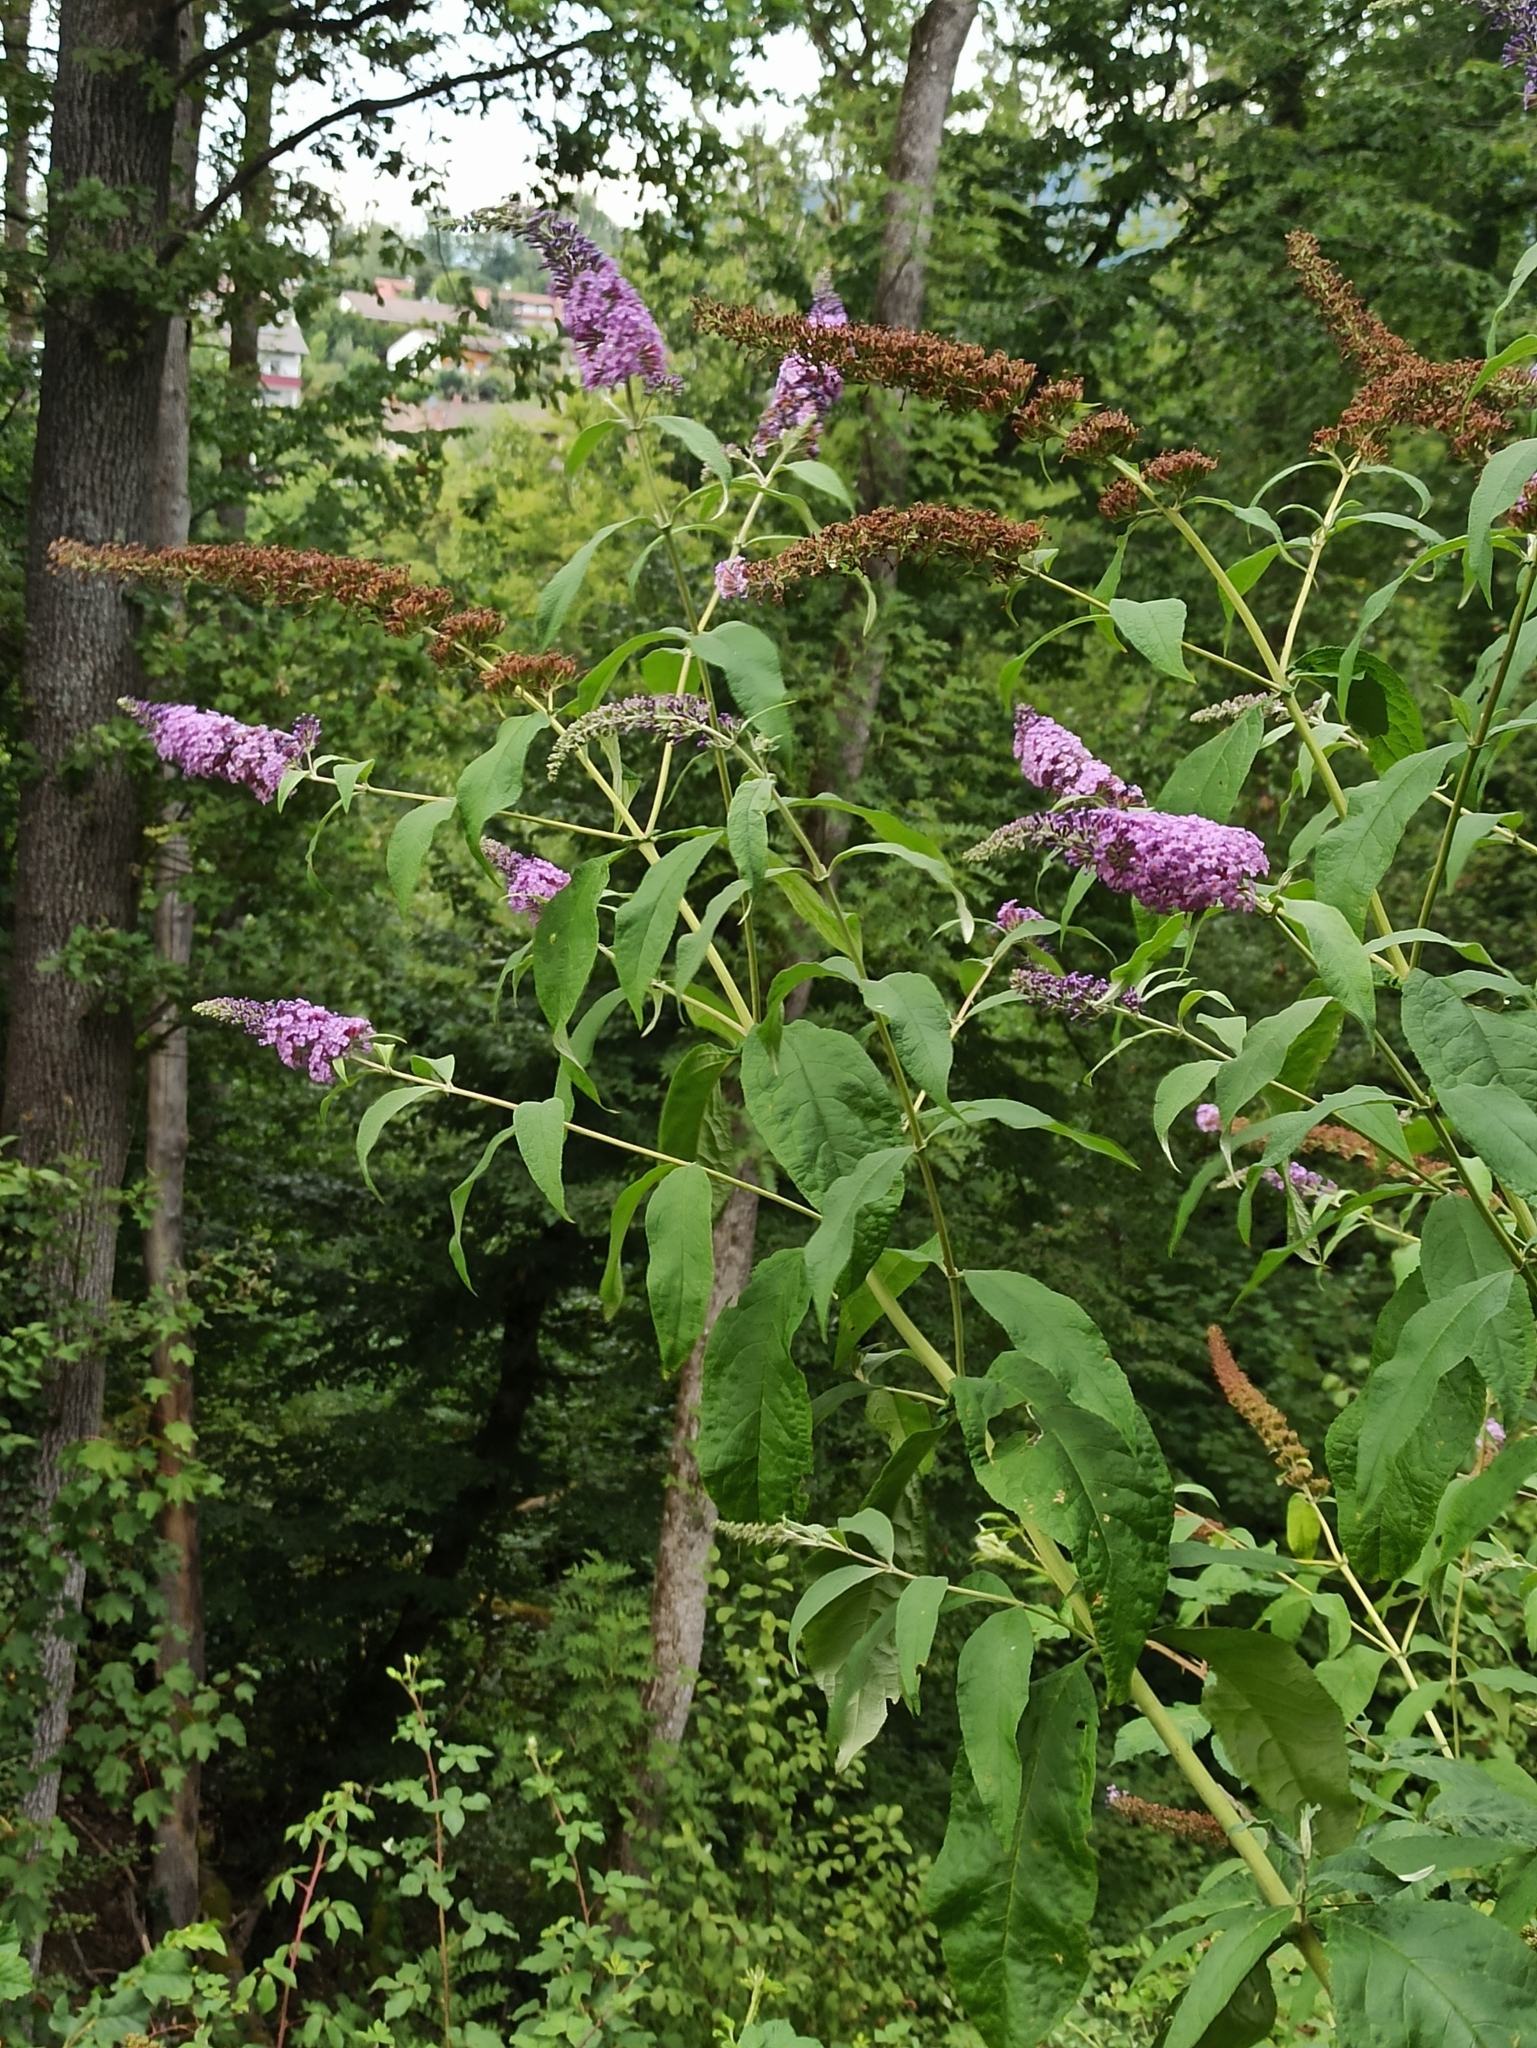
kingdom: Plantae
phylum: Tracheophyta
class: Magnoliopsida
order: Lamiales
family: Scrophulariaceae
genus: Buddleja
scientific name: Buddleja davidii
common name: Butterfly-bush
